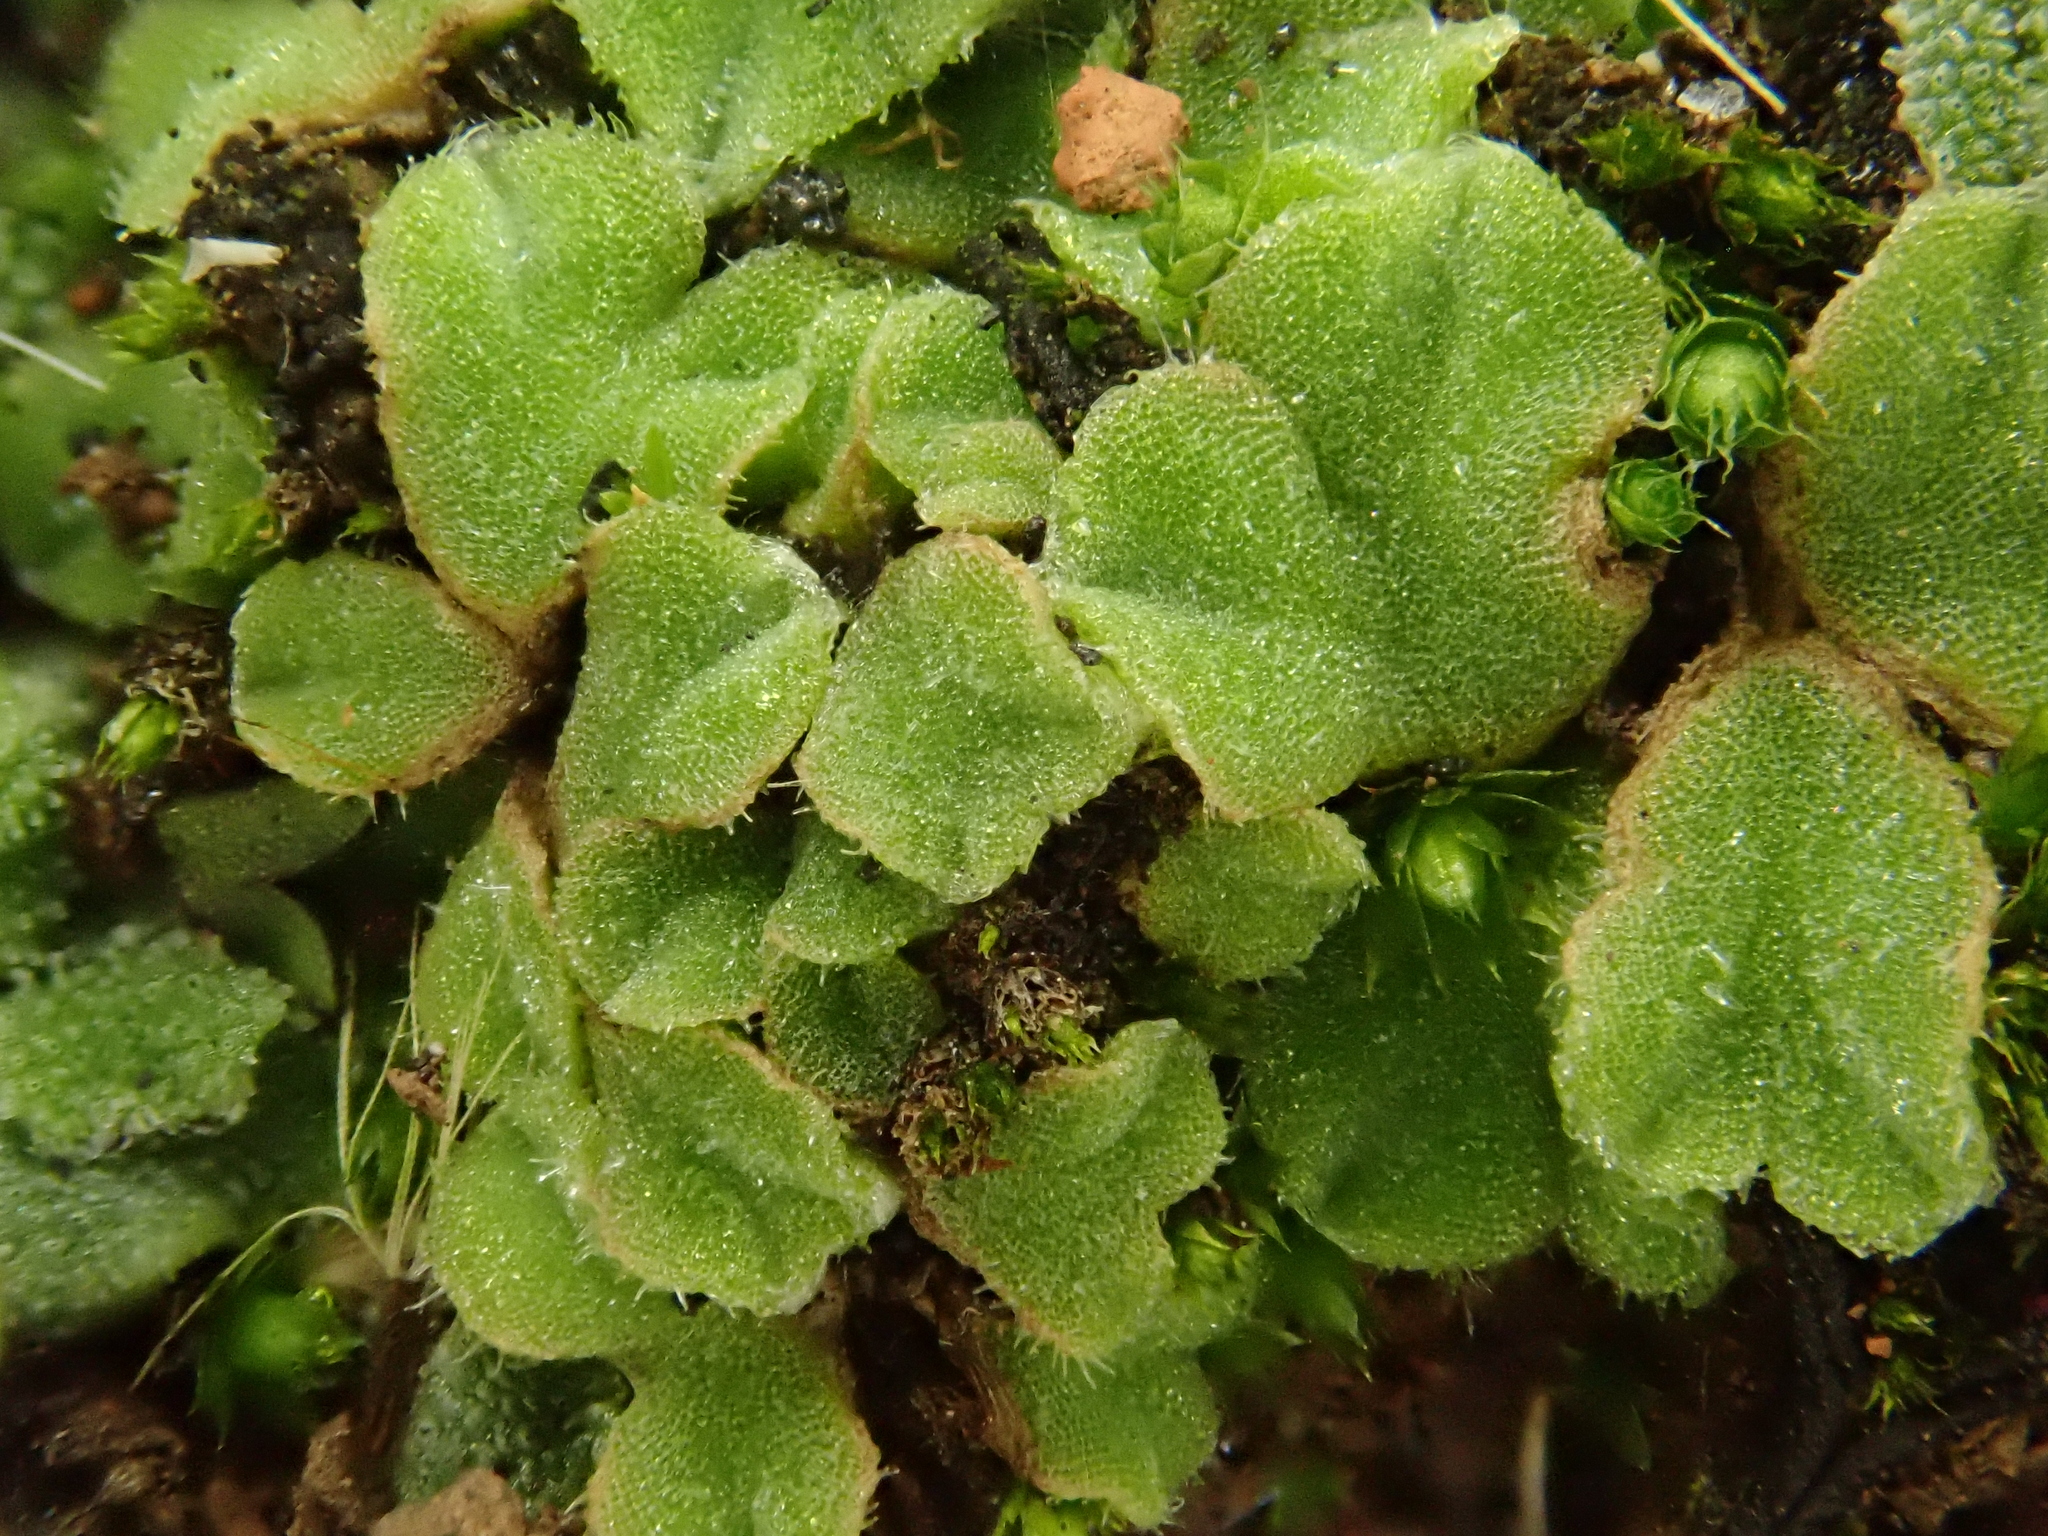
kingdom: Plantae
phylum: Marchantiophyta
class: Marchantiopsida
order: Marchantiales
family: Ricciaceae
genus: Riccia
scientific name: Riccia gougetiana
